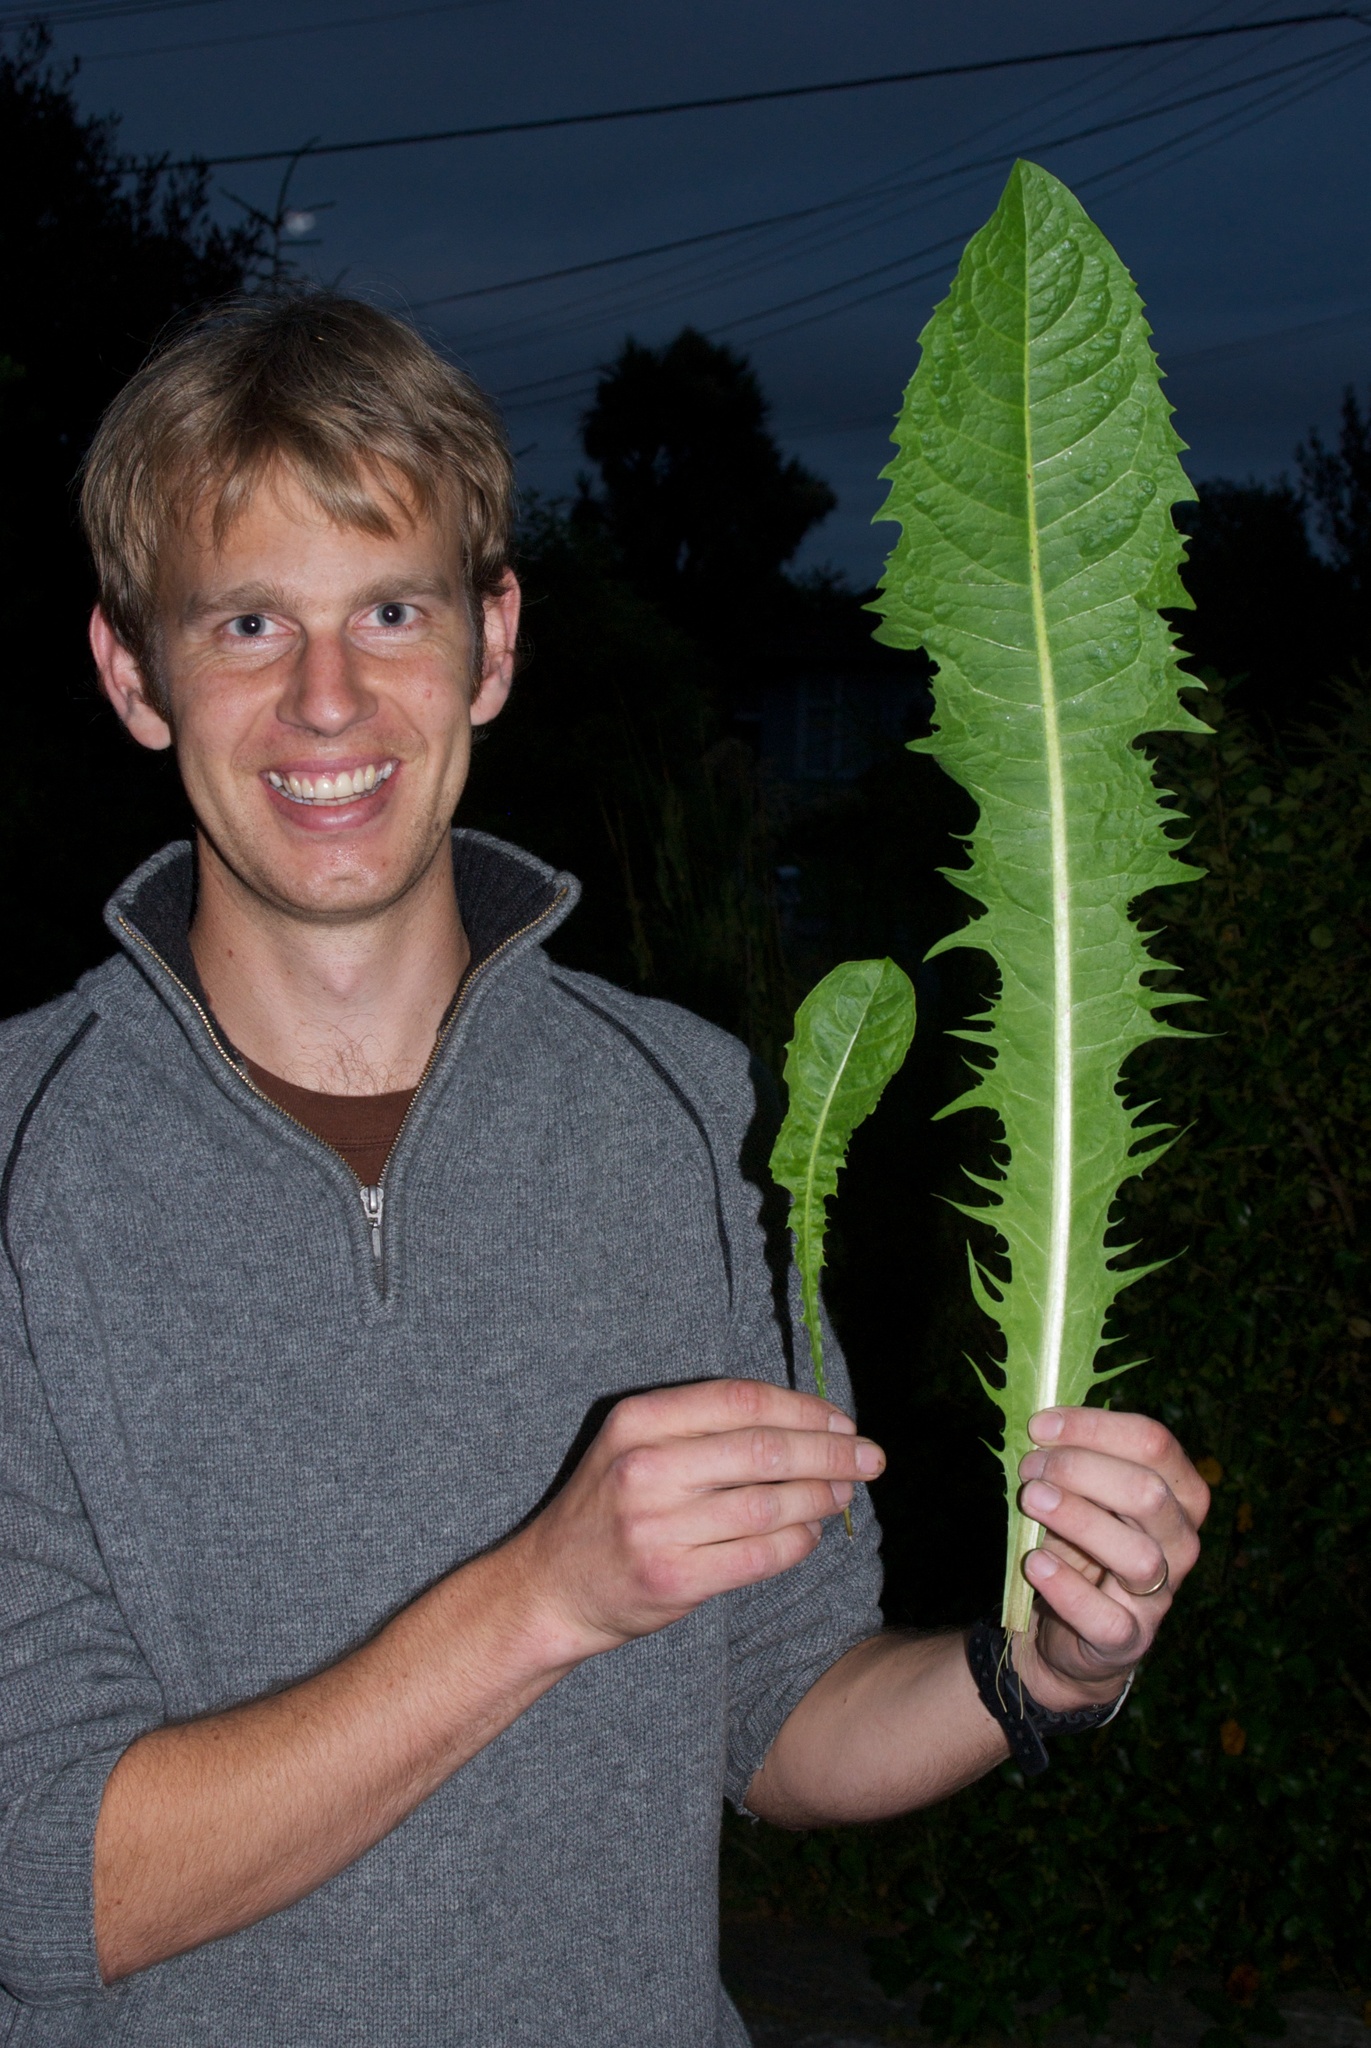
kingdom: Plantae
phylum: Tracheophyta
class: Magnoliopsida
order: Asterales
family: Asteraceae
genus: Taraxacum
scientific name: Taraxacum officinale
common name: Common dandelion
